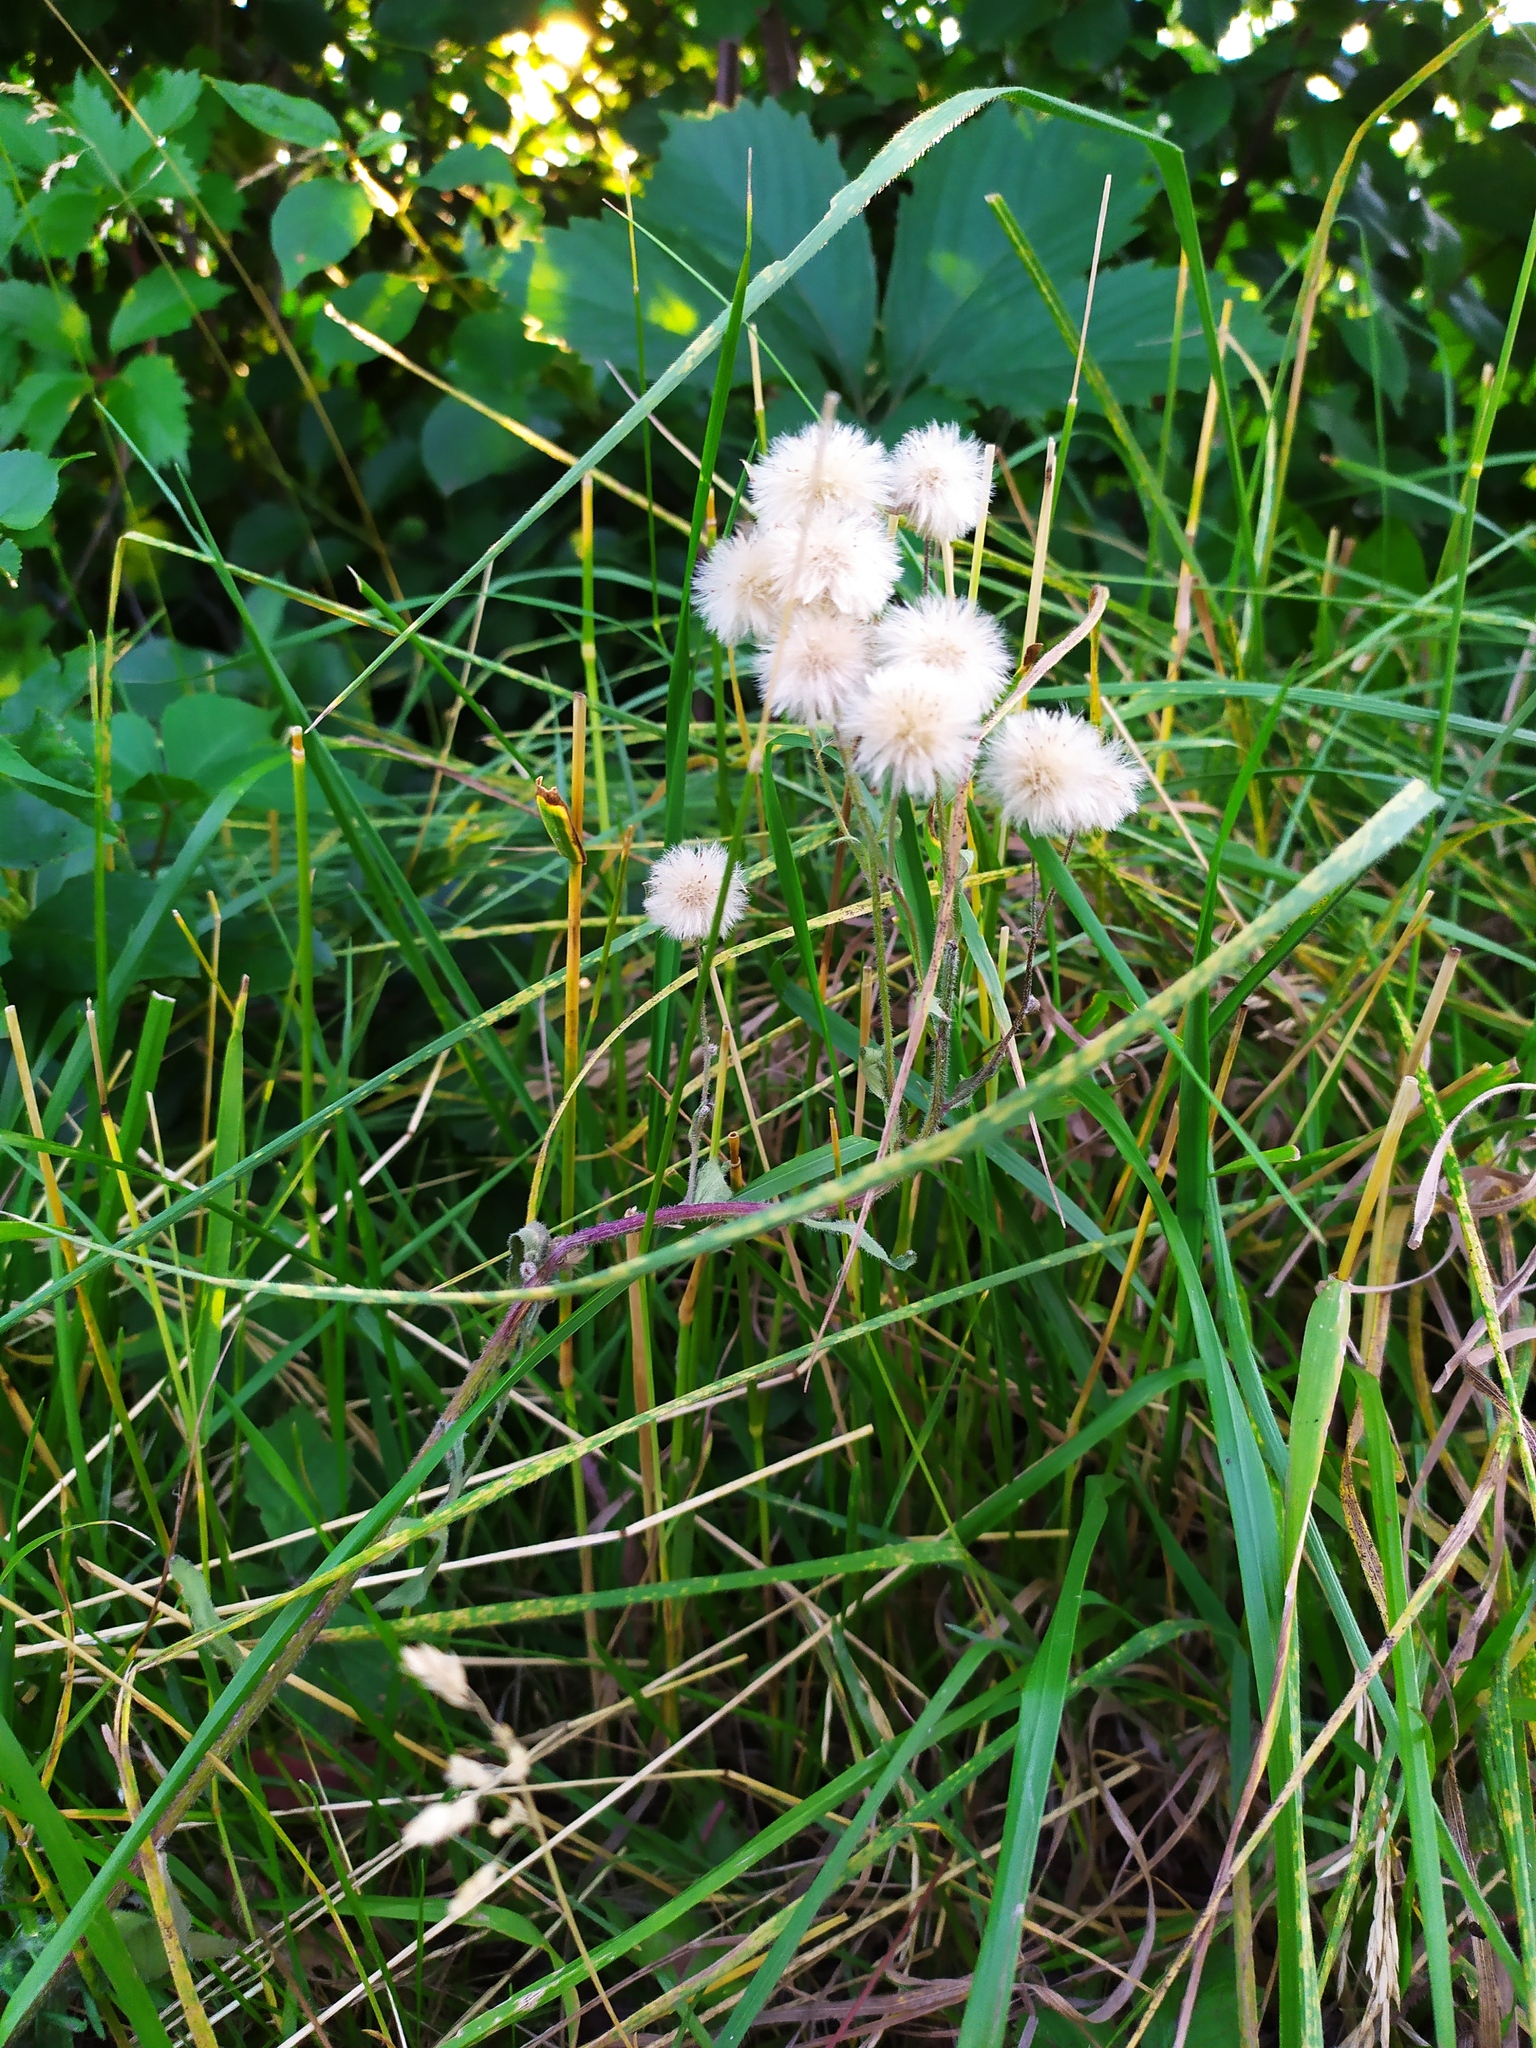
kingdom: Plantae
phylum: Tracheophyta
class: Magnoliopsida
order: Asterales
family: Asteraceae
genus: Erigeron
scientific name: Erigeron acris
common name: Blue fleabane
